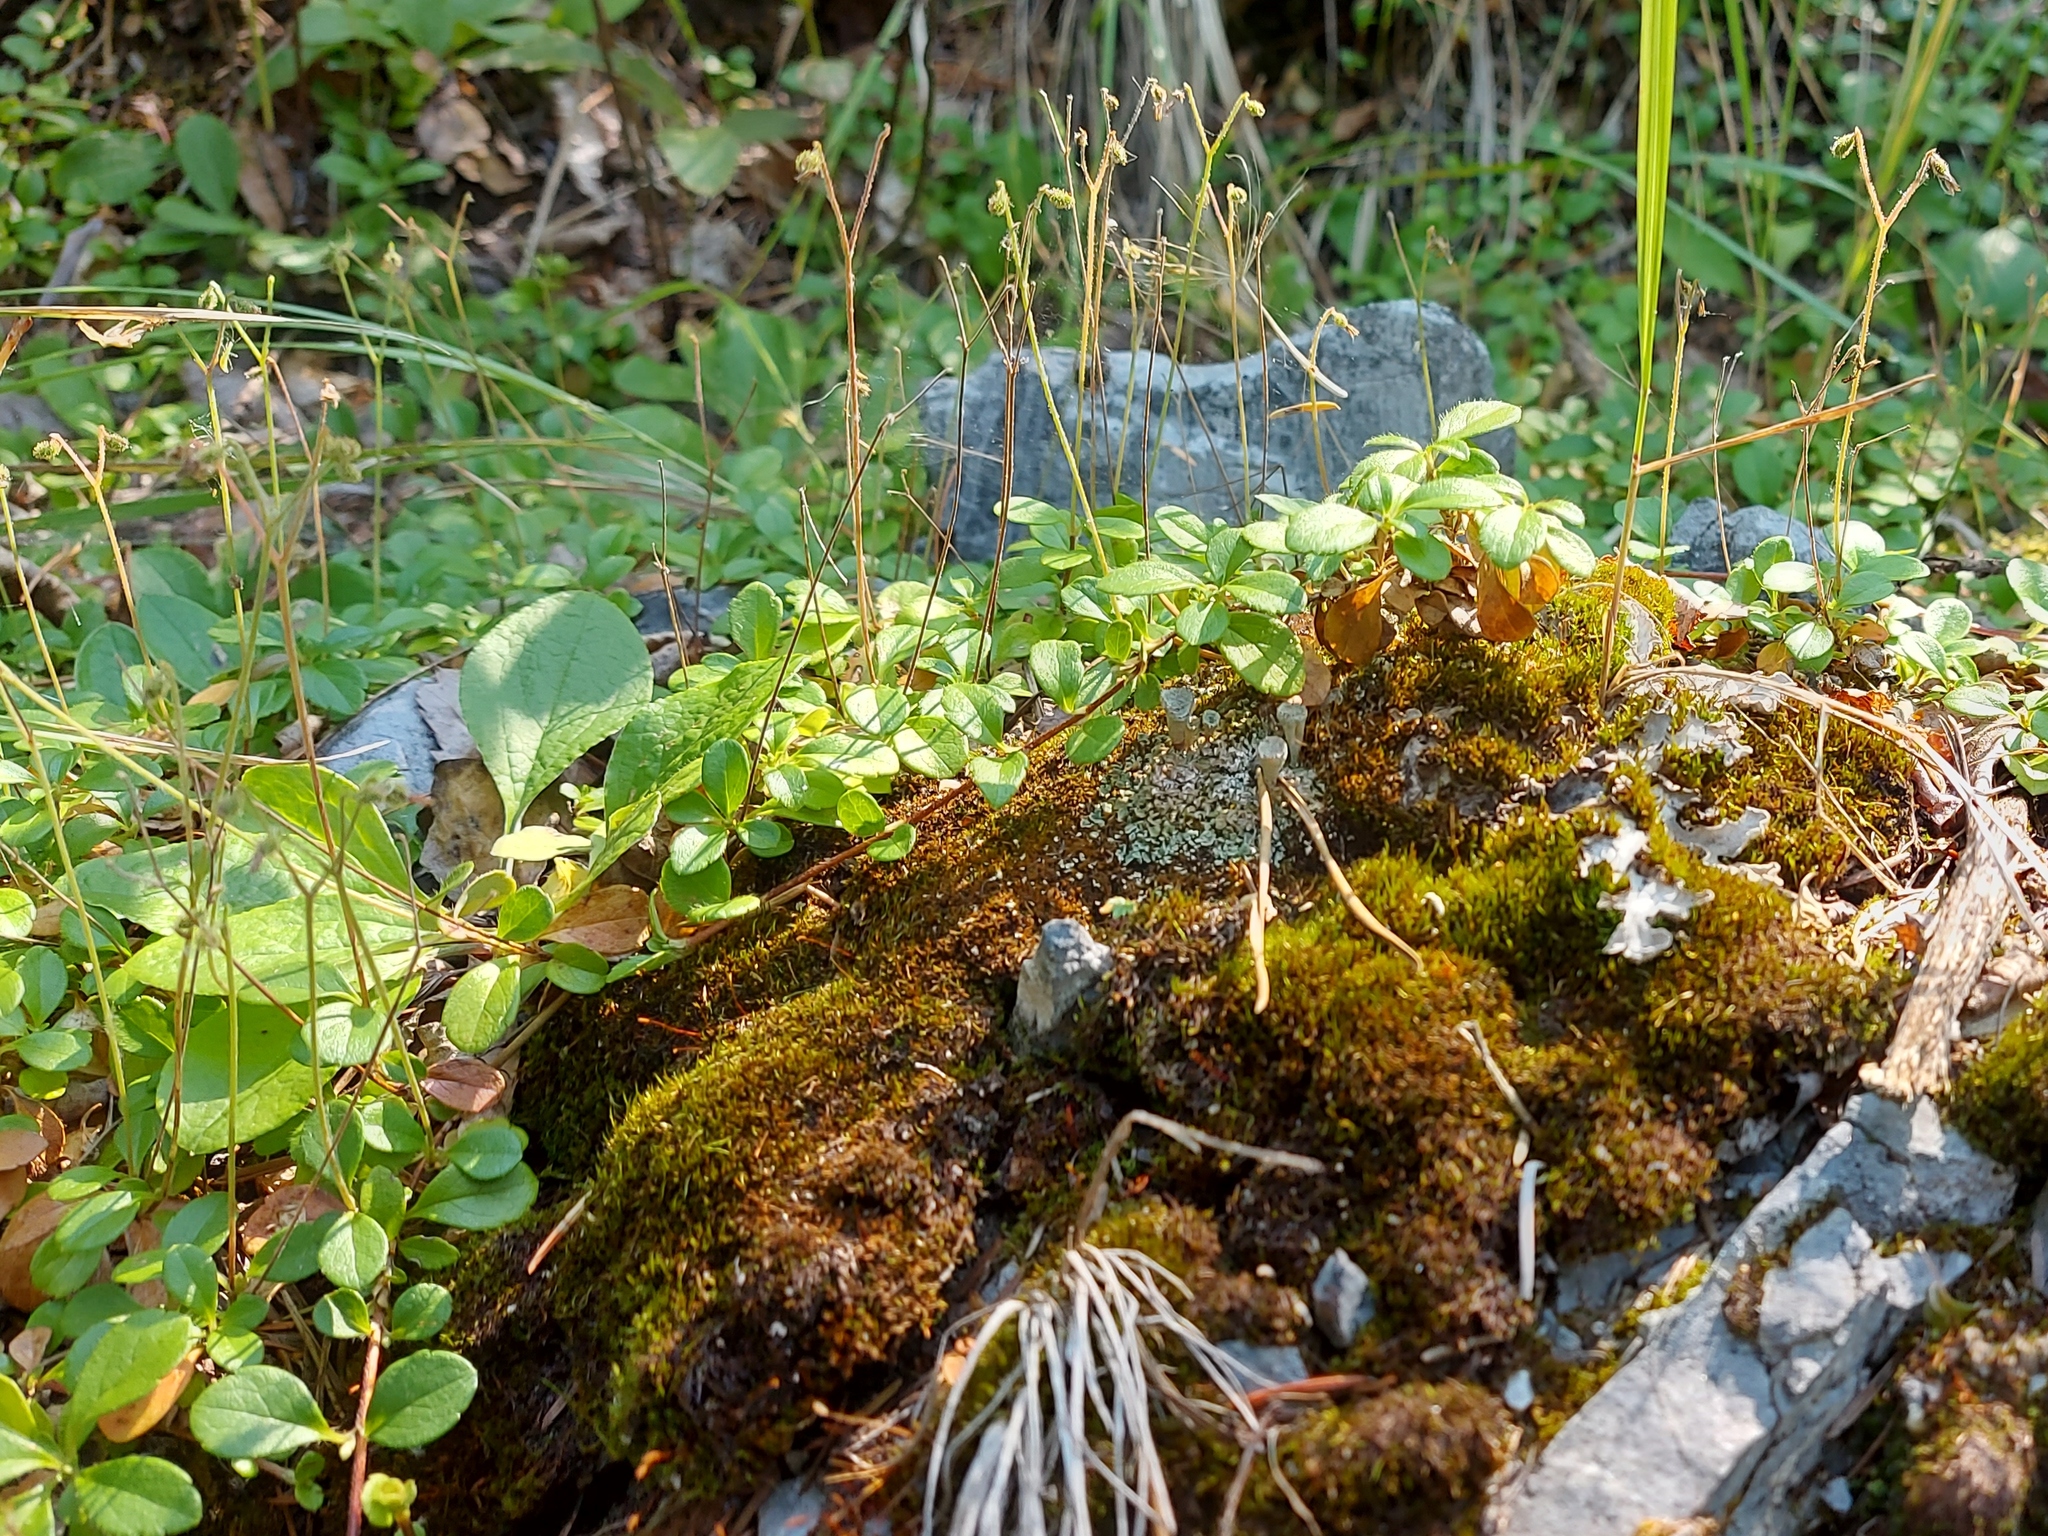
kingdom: Plantae
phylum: Tracheophyta
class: Magnoliopsida
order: Dipsacales
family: Caprifoliaceae
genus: Linnaea
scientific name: Linnaea borealis
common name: Twinflower
